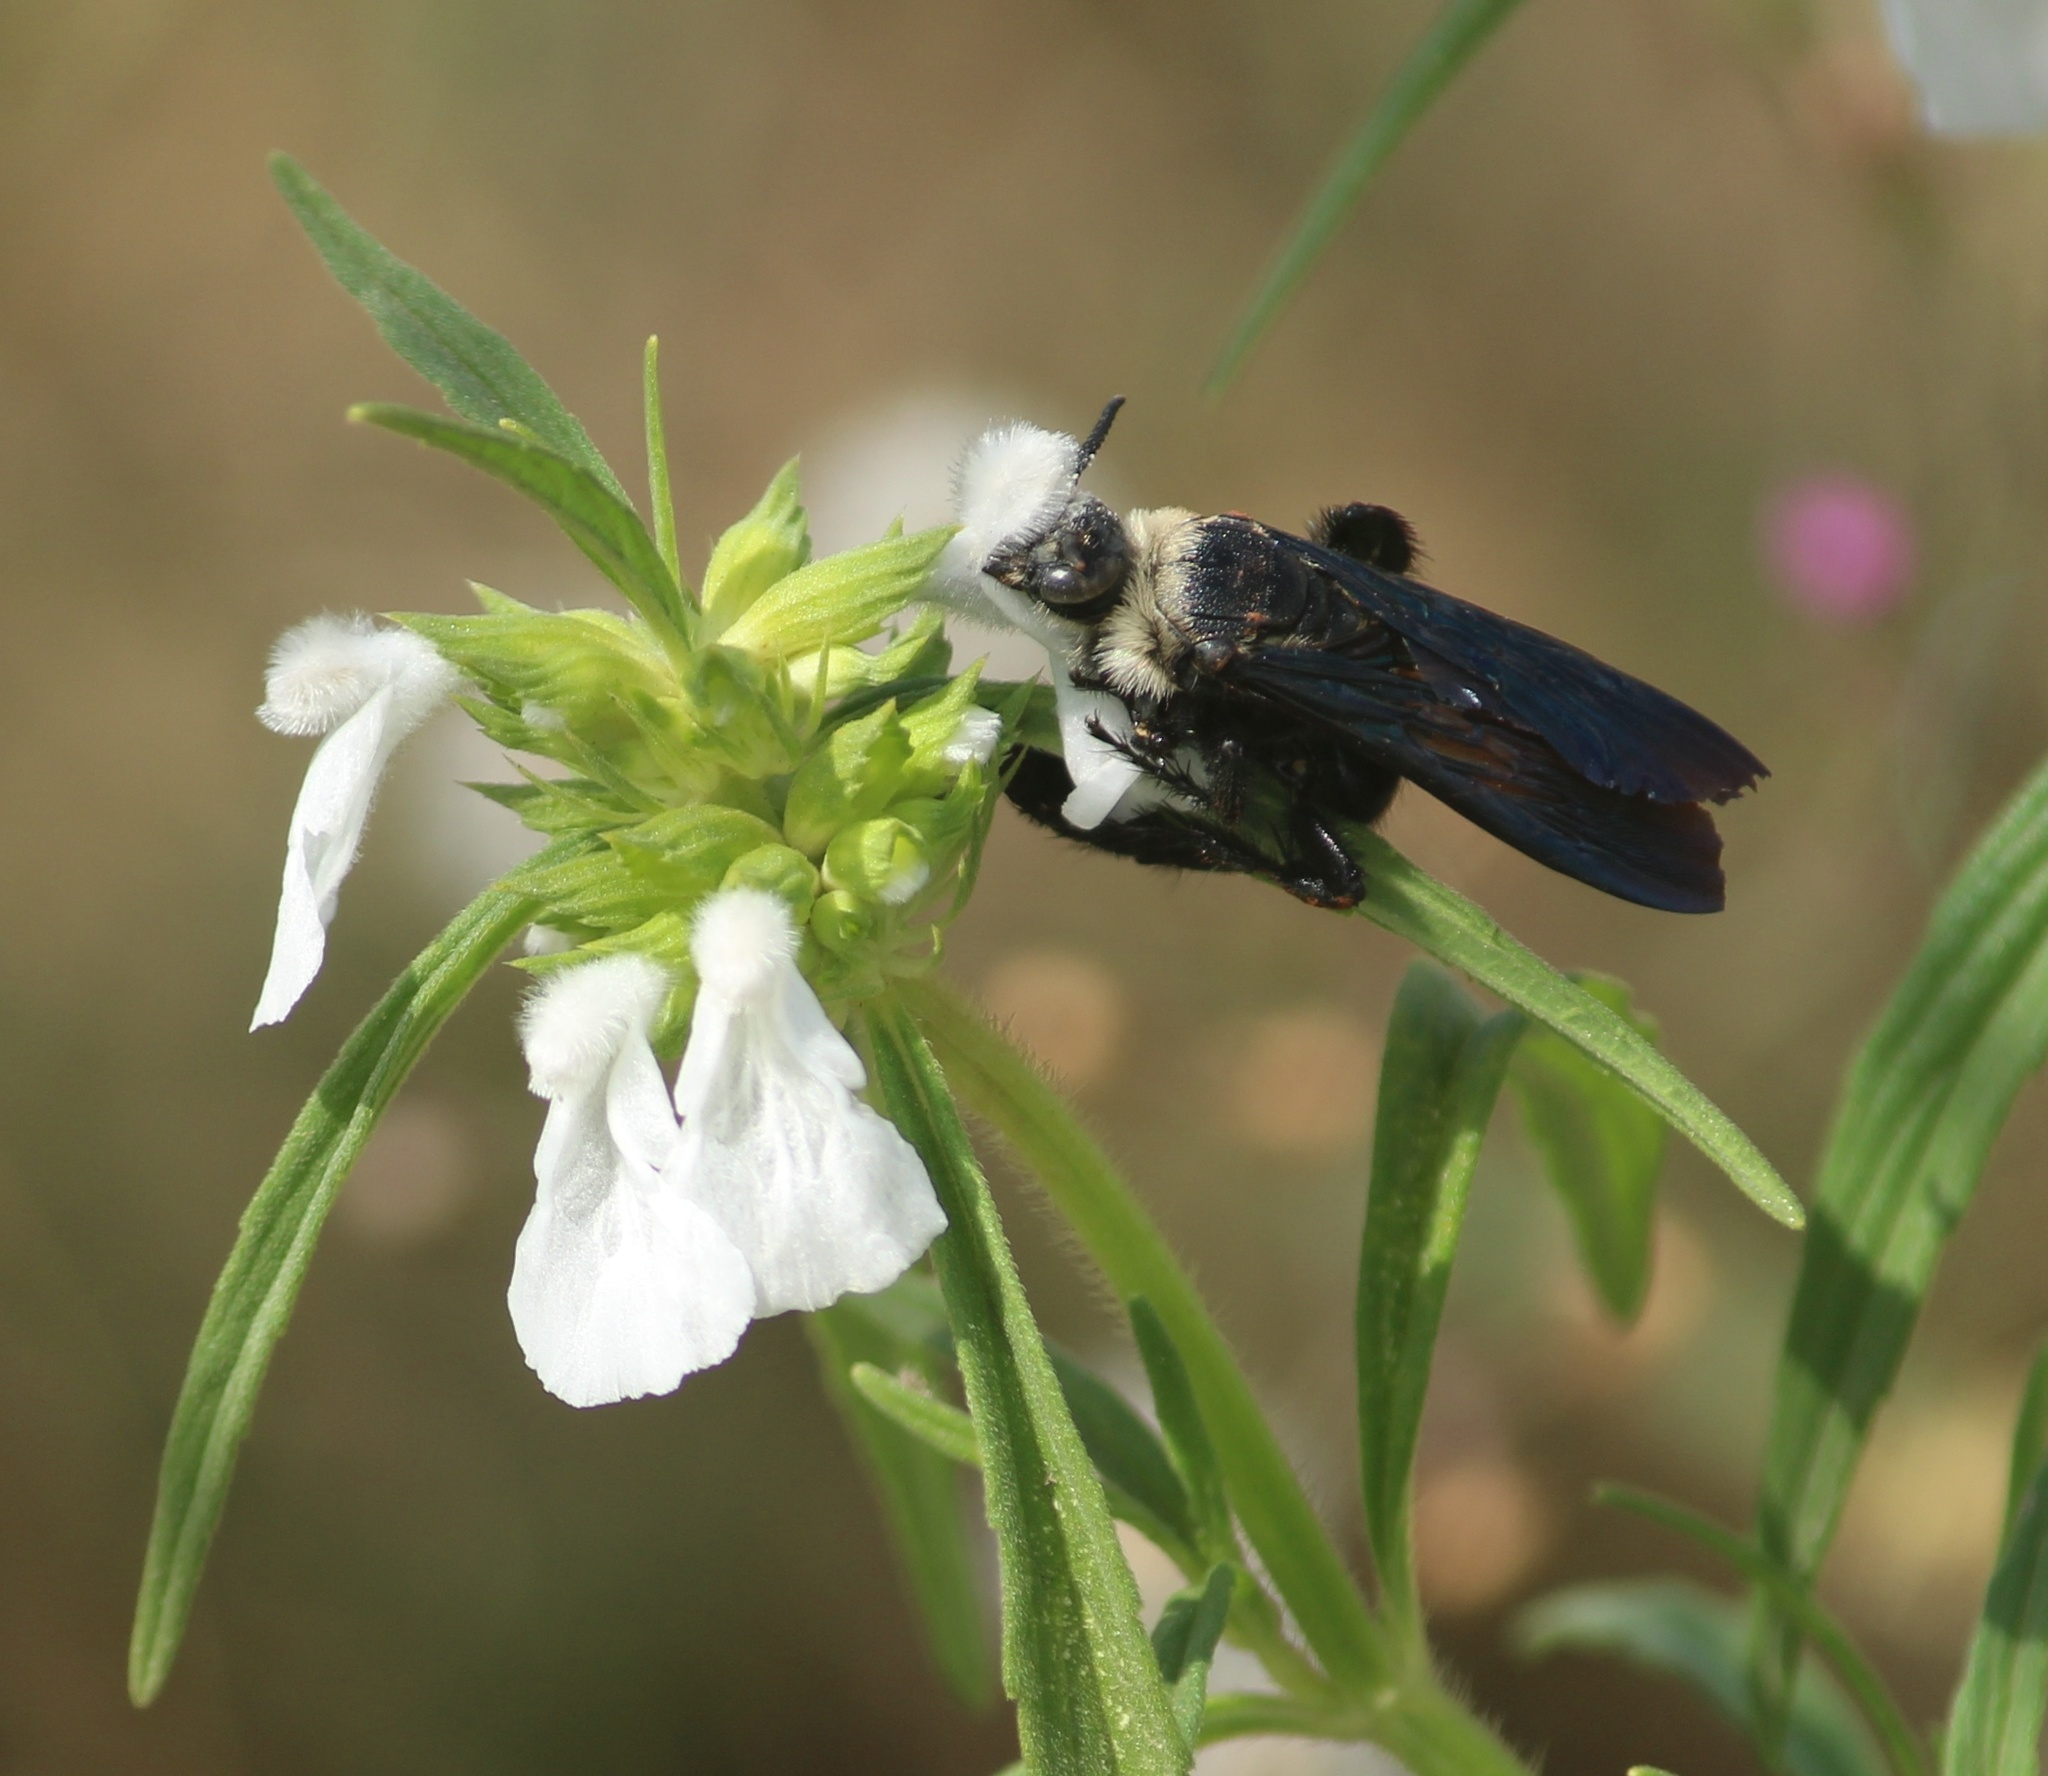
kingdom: Animalia
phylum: Arthropoda
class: Insecta
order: Hymenoptera
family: Scoliidae
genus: Campsomeriella
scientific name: Campsomeriella collaris
